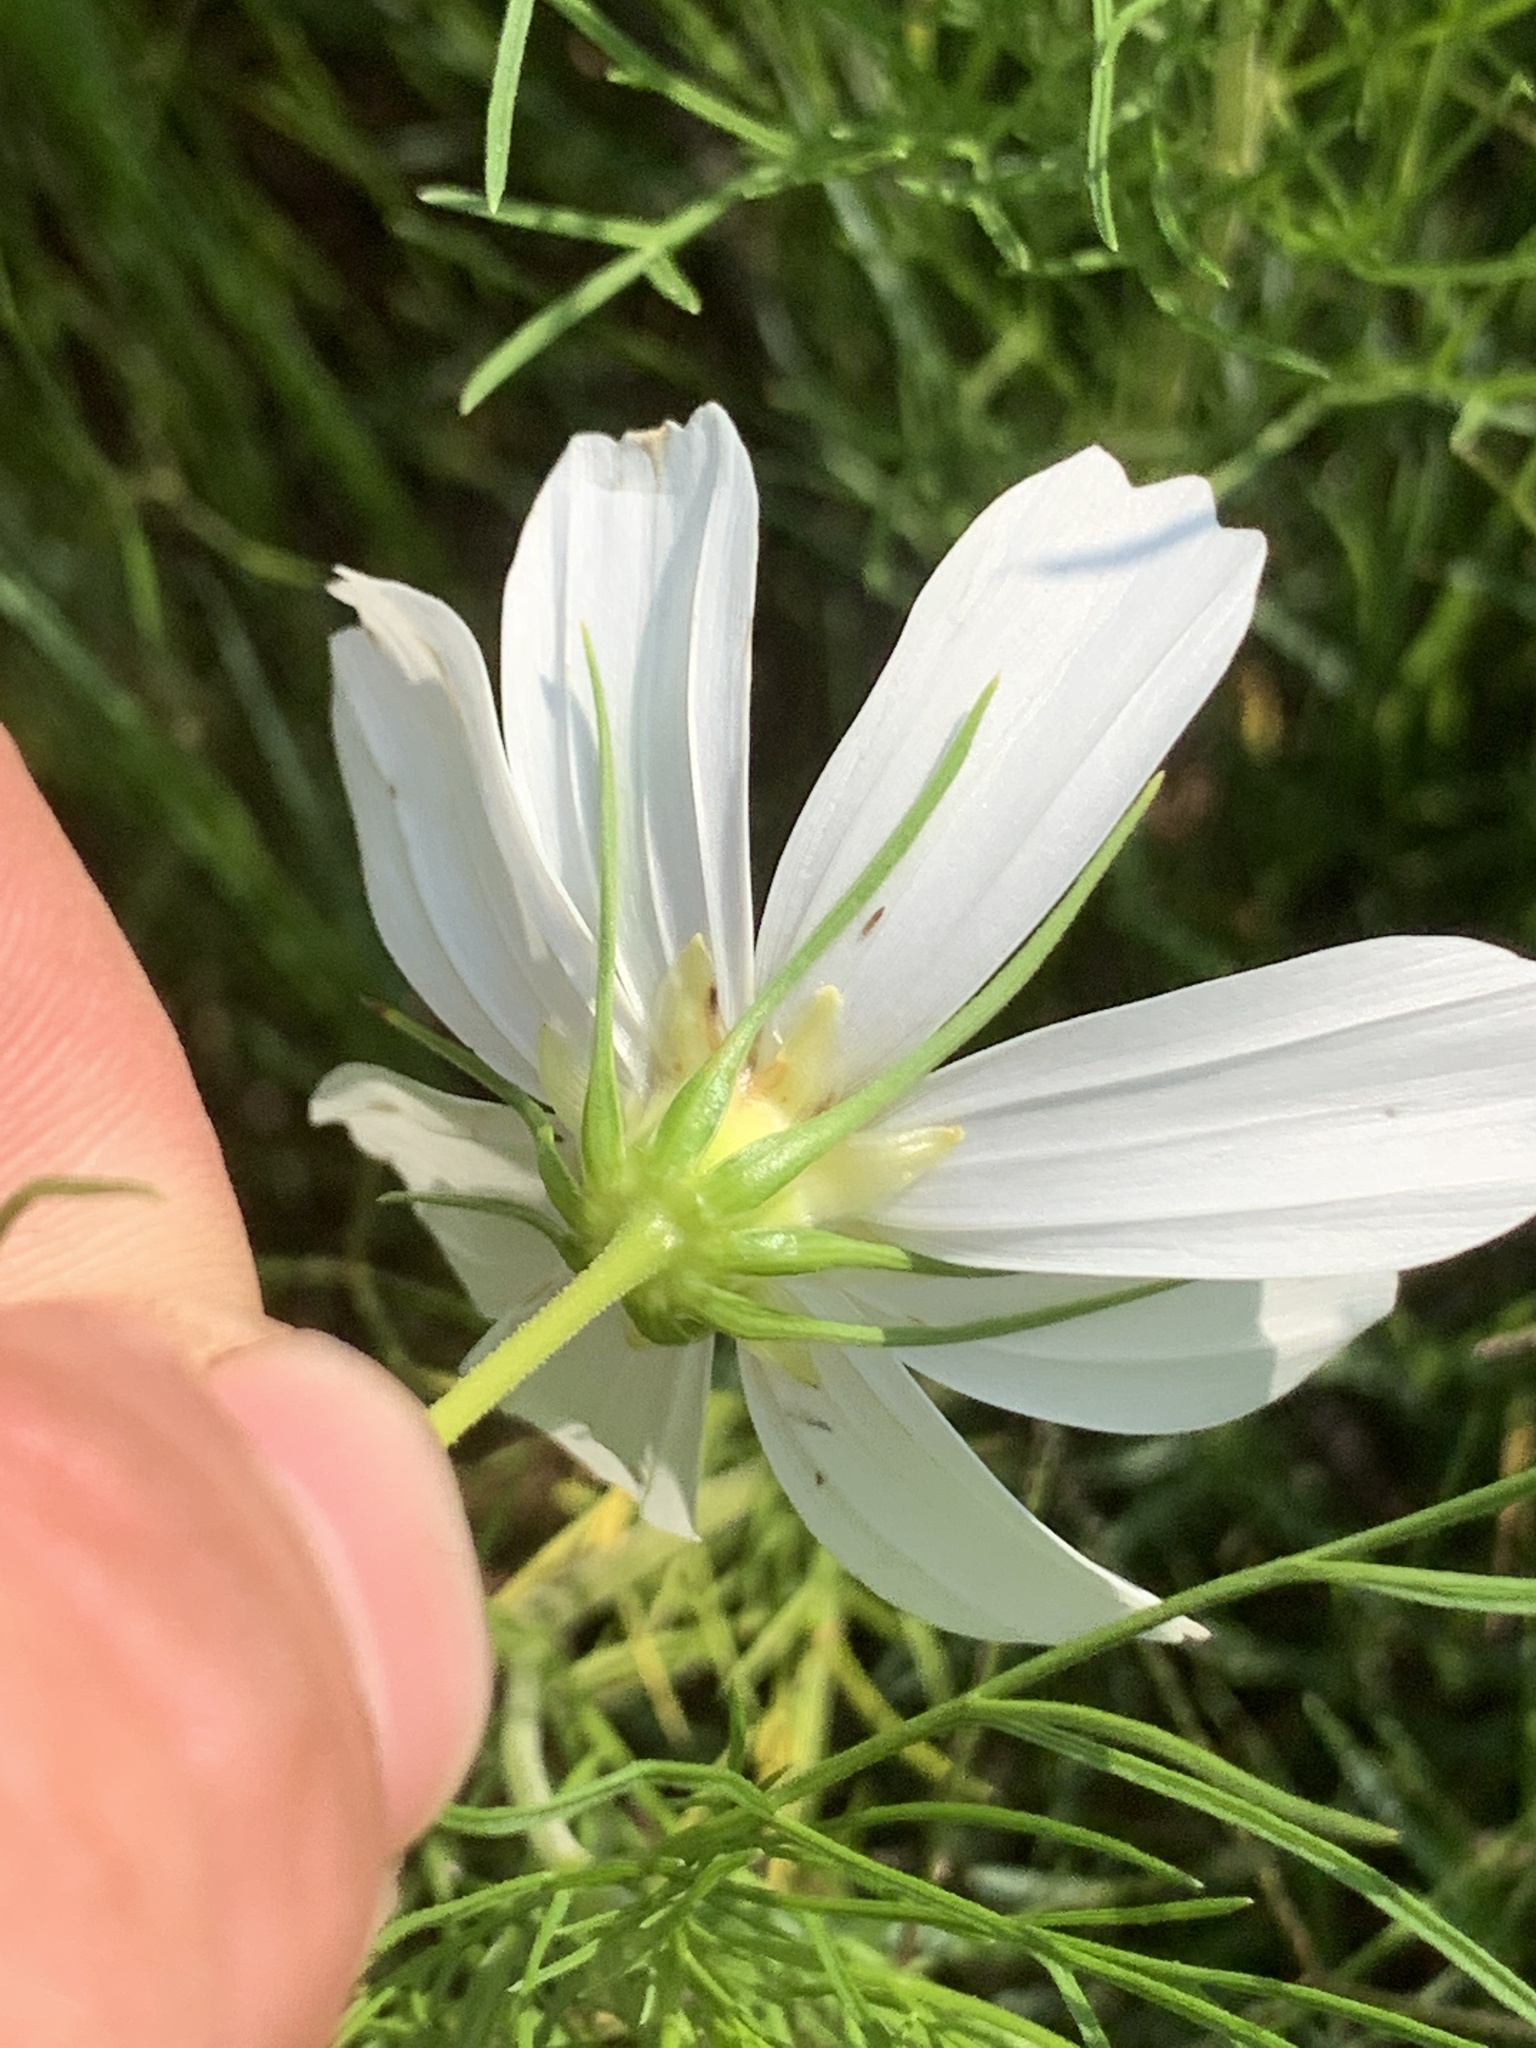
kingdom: Plantae
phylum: Tracheophyta
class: Magnoliopsida
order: Asterales
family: Asteraceae
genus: Cosmos
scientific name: Cosmos bipinnatus
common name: Garden cosmos
